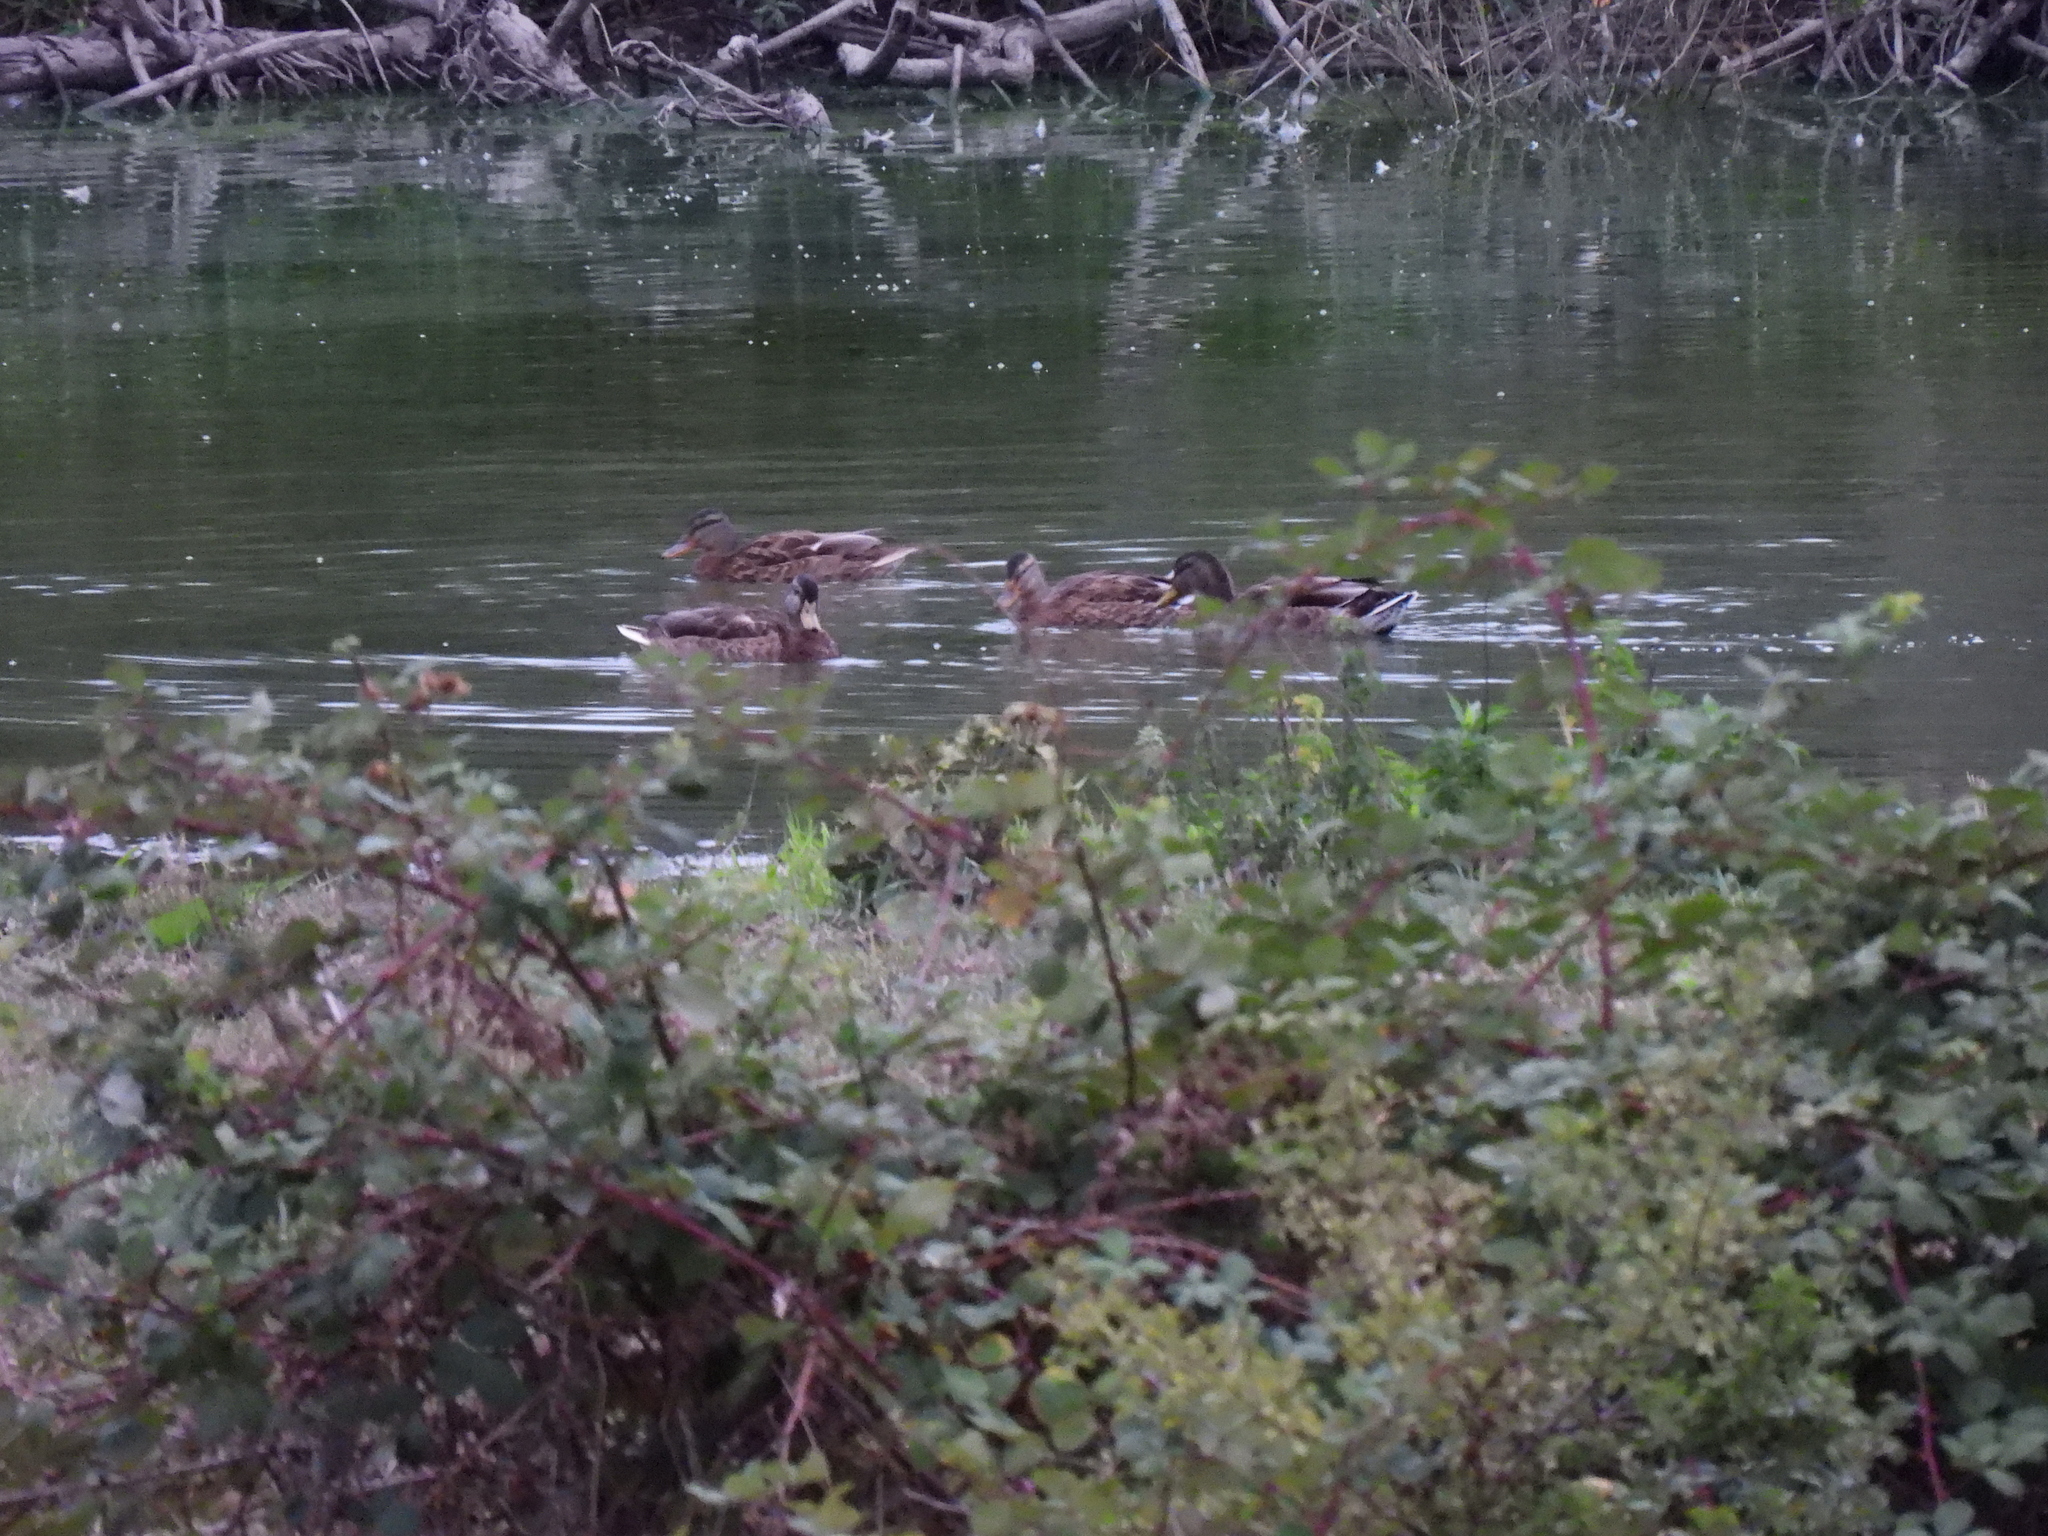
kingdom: Animalia
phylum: Chordata
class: Aves
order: Anseriformes
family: Anatidae
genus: Anas
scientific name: Anas platyrhynchos
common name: Mallard
